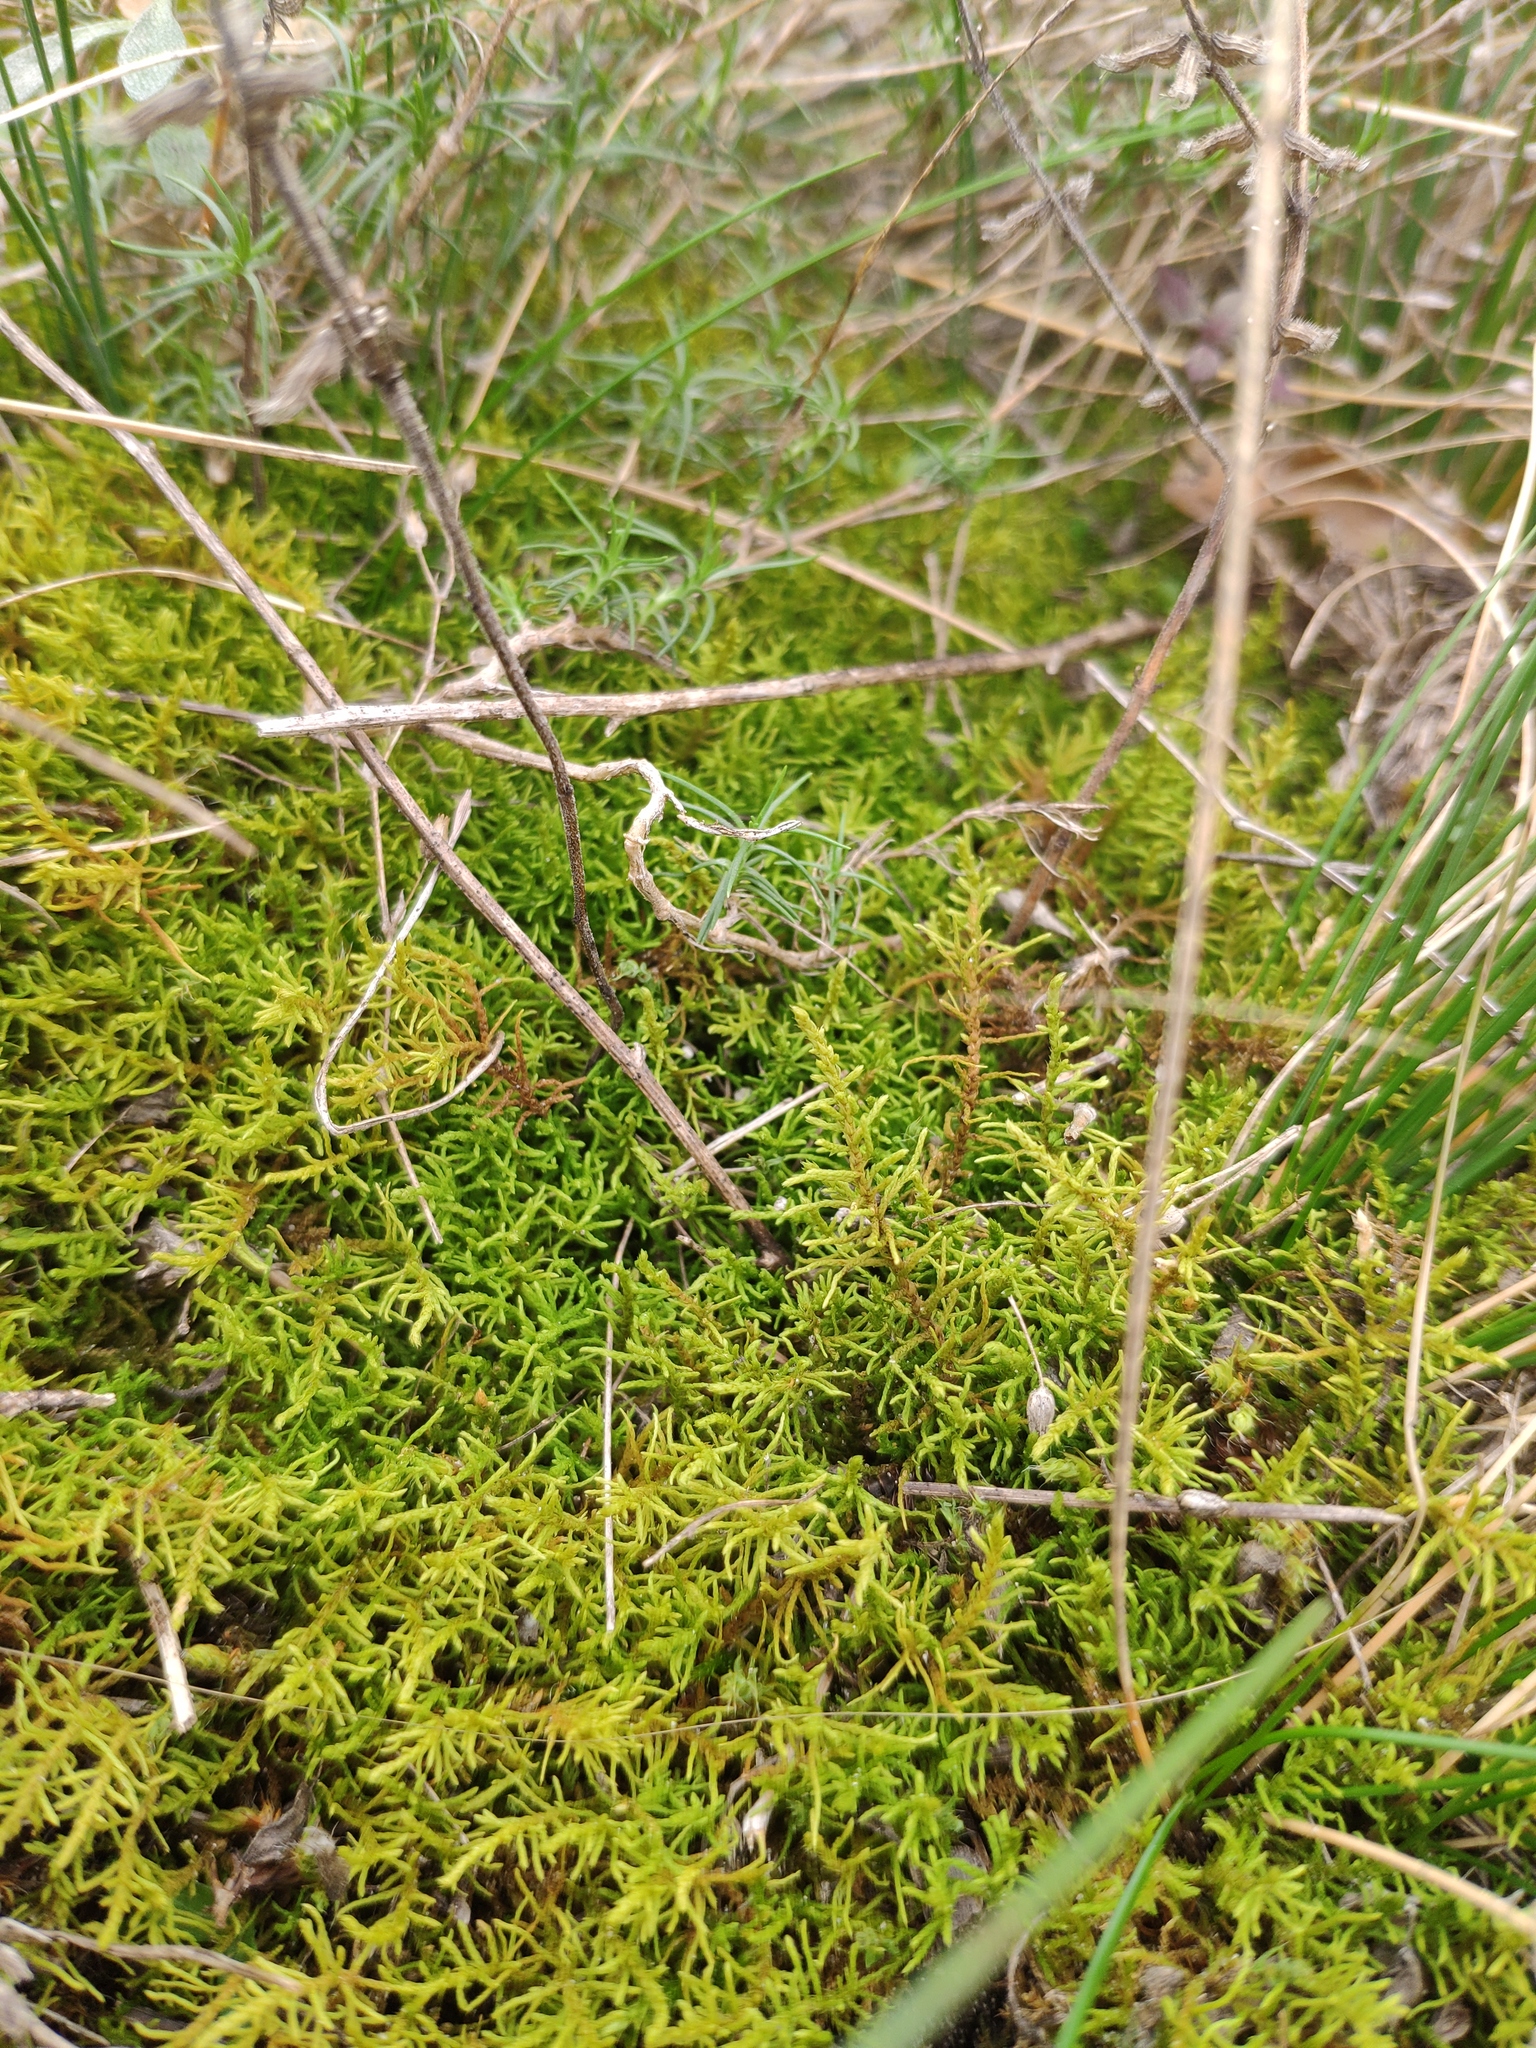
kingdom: Plantae
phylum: Bryophyta
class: Bryopsida
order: Hypnales
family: Thuidiaceae
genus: Abietinella
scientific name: Abietinella abietina
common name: Wiry fern moss
